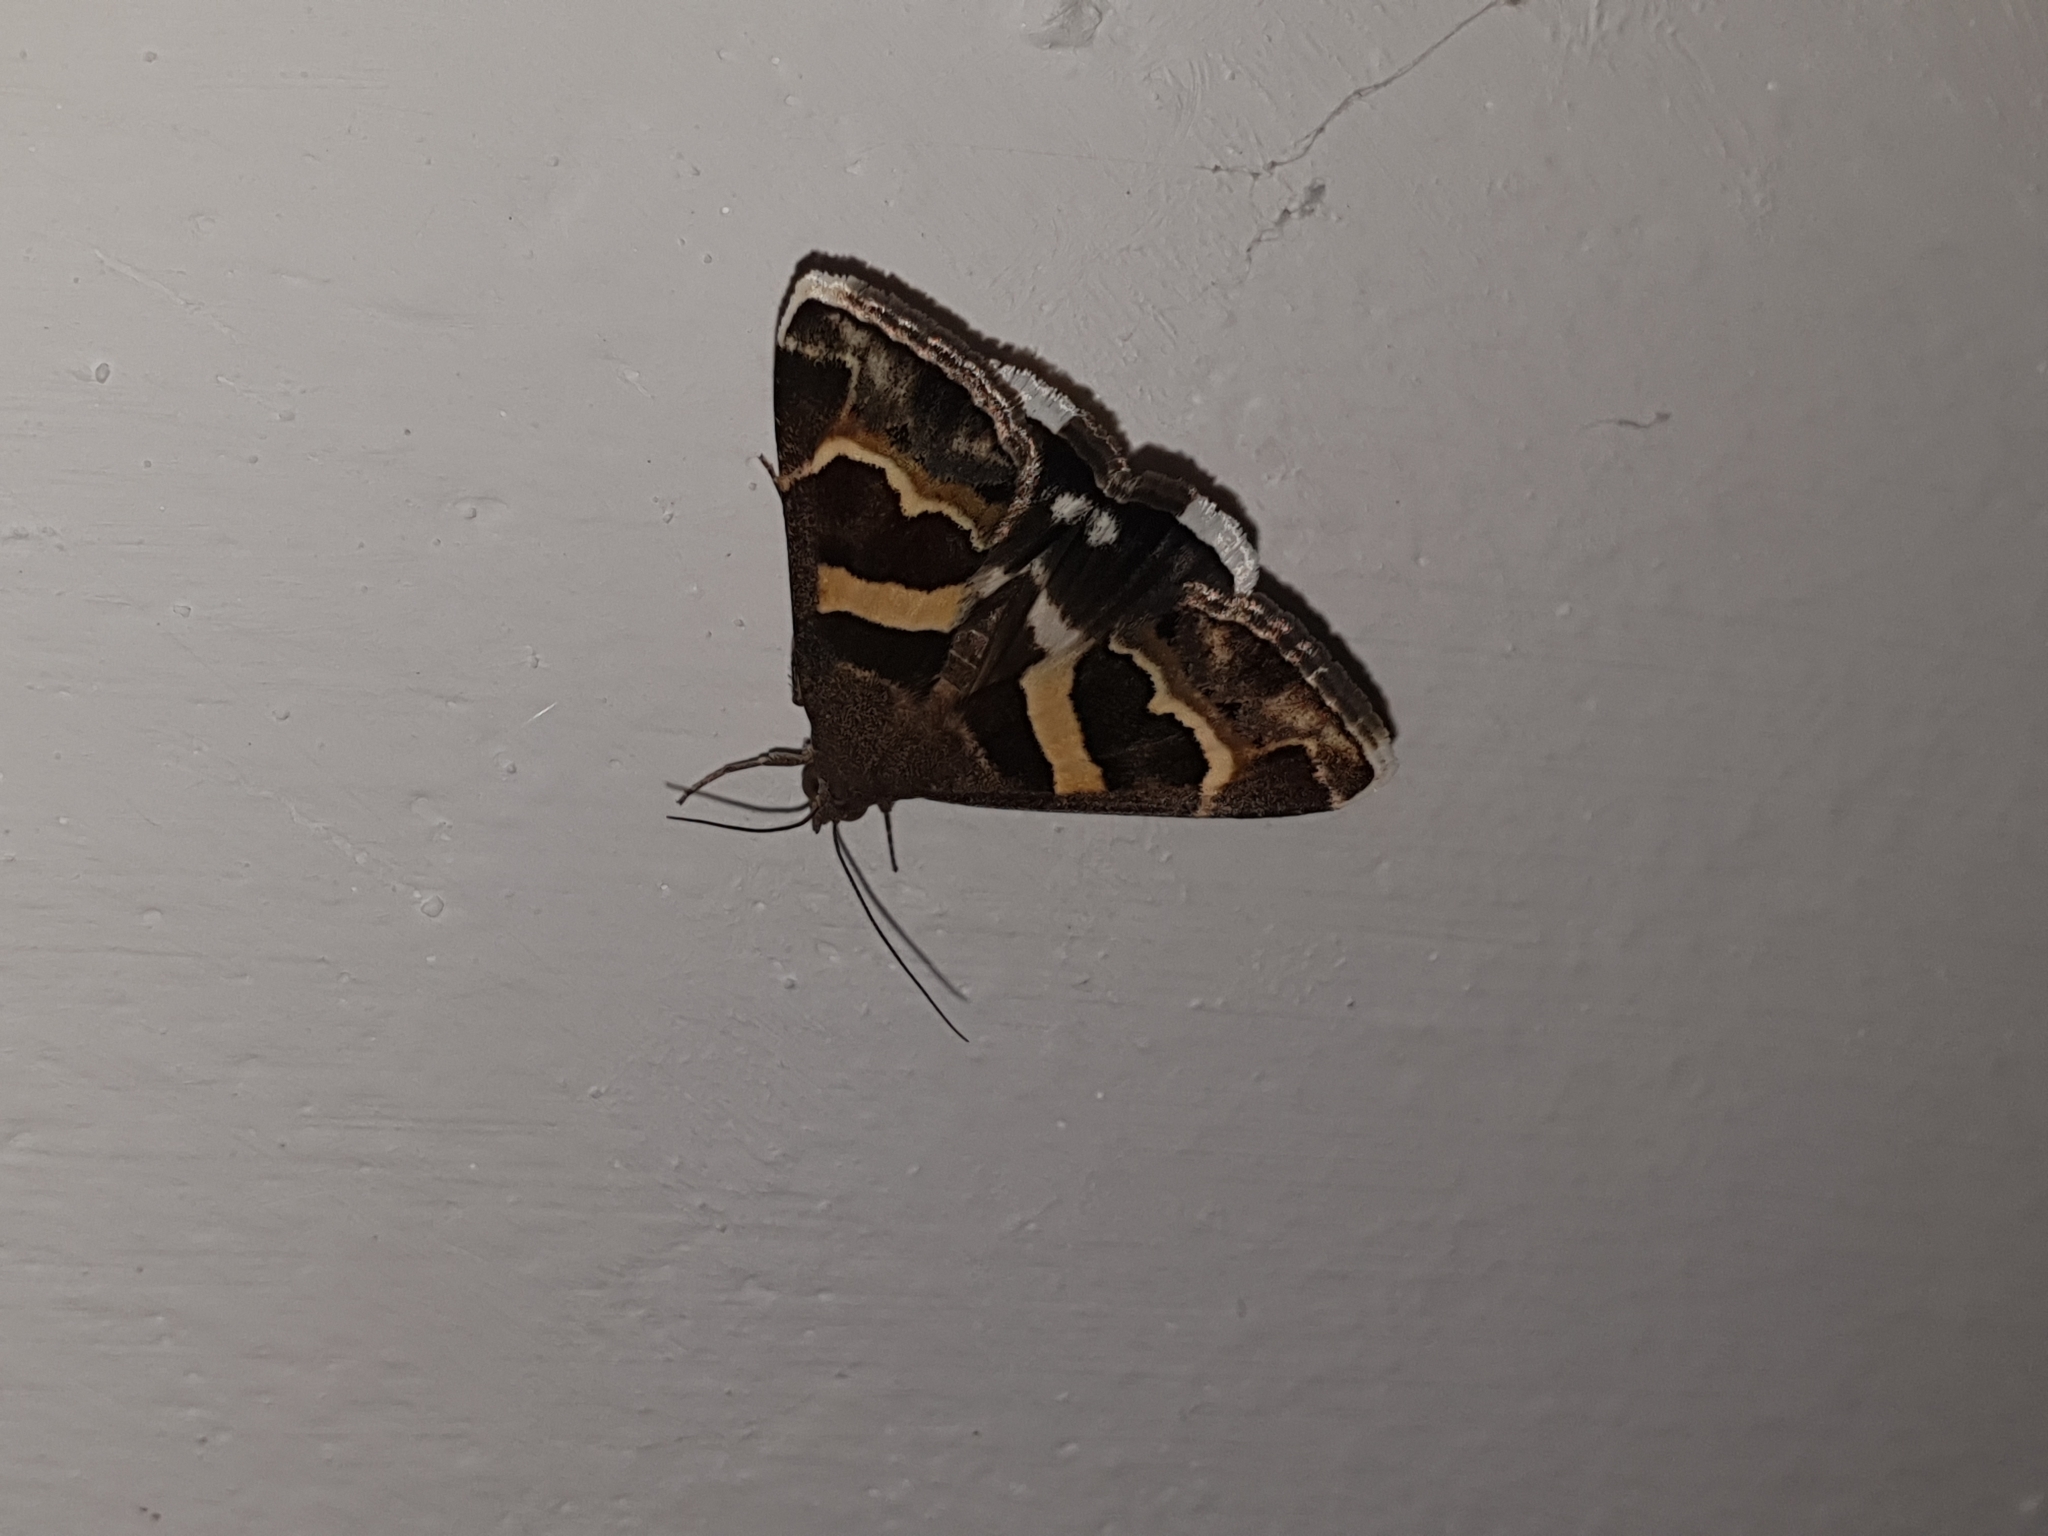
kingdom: Animalia
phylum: Arthropoda
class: Insecta
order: Lepidoptera
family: Erebidae
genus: Grammodes
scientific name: Grammodes stolida
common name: Geometrician
